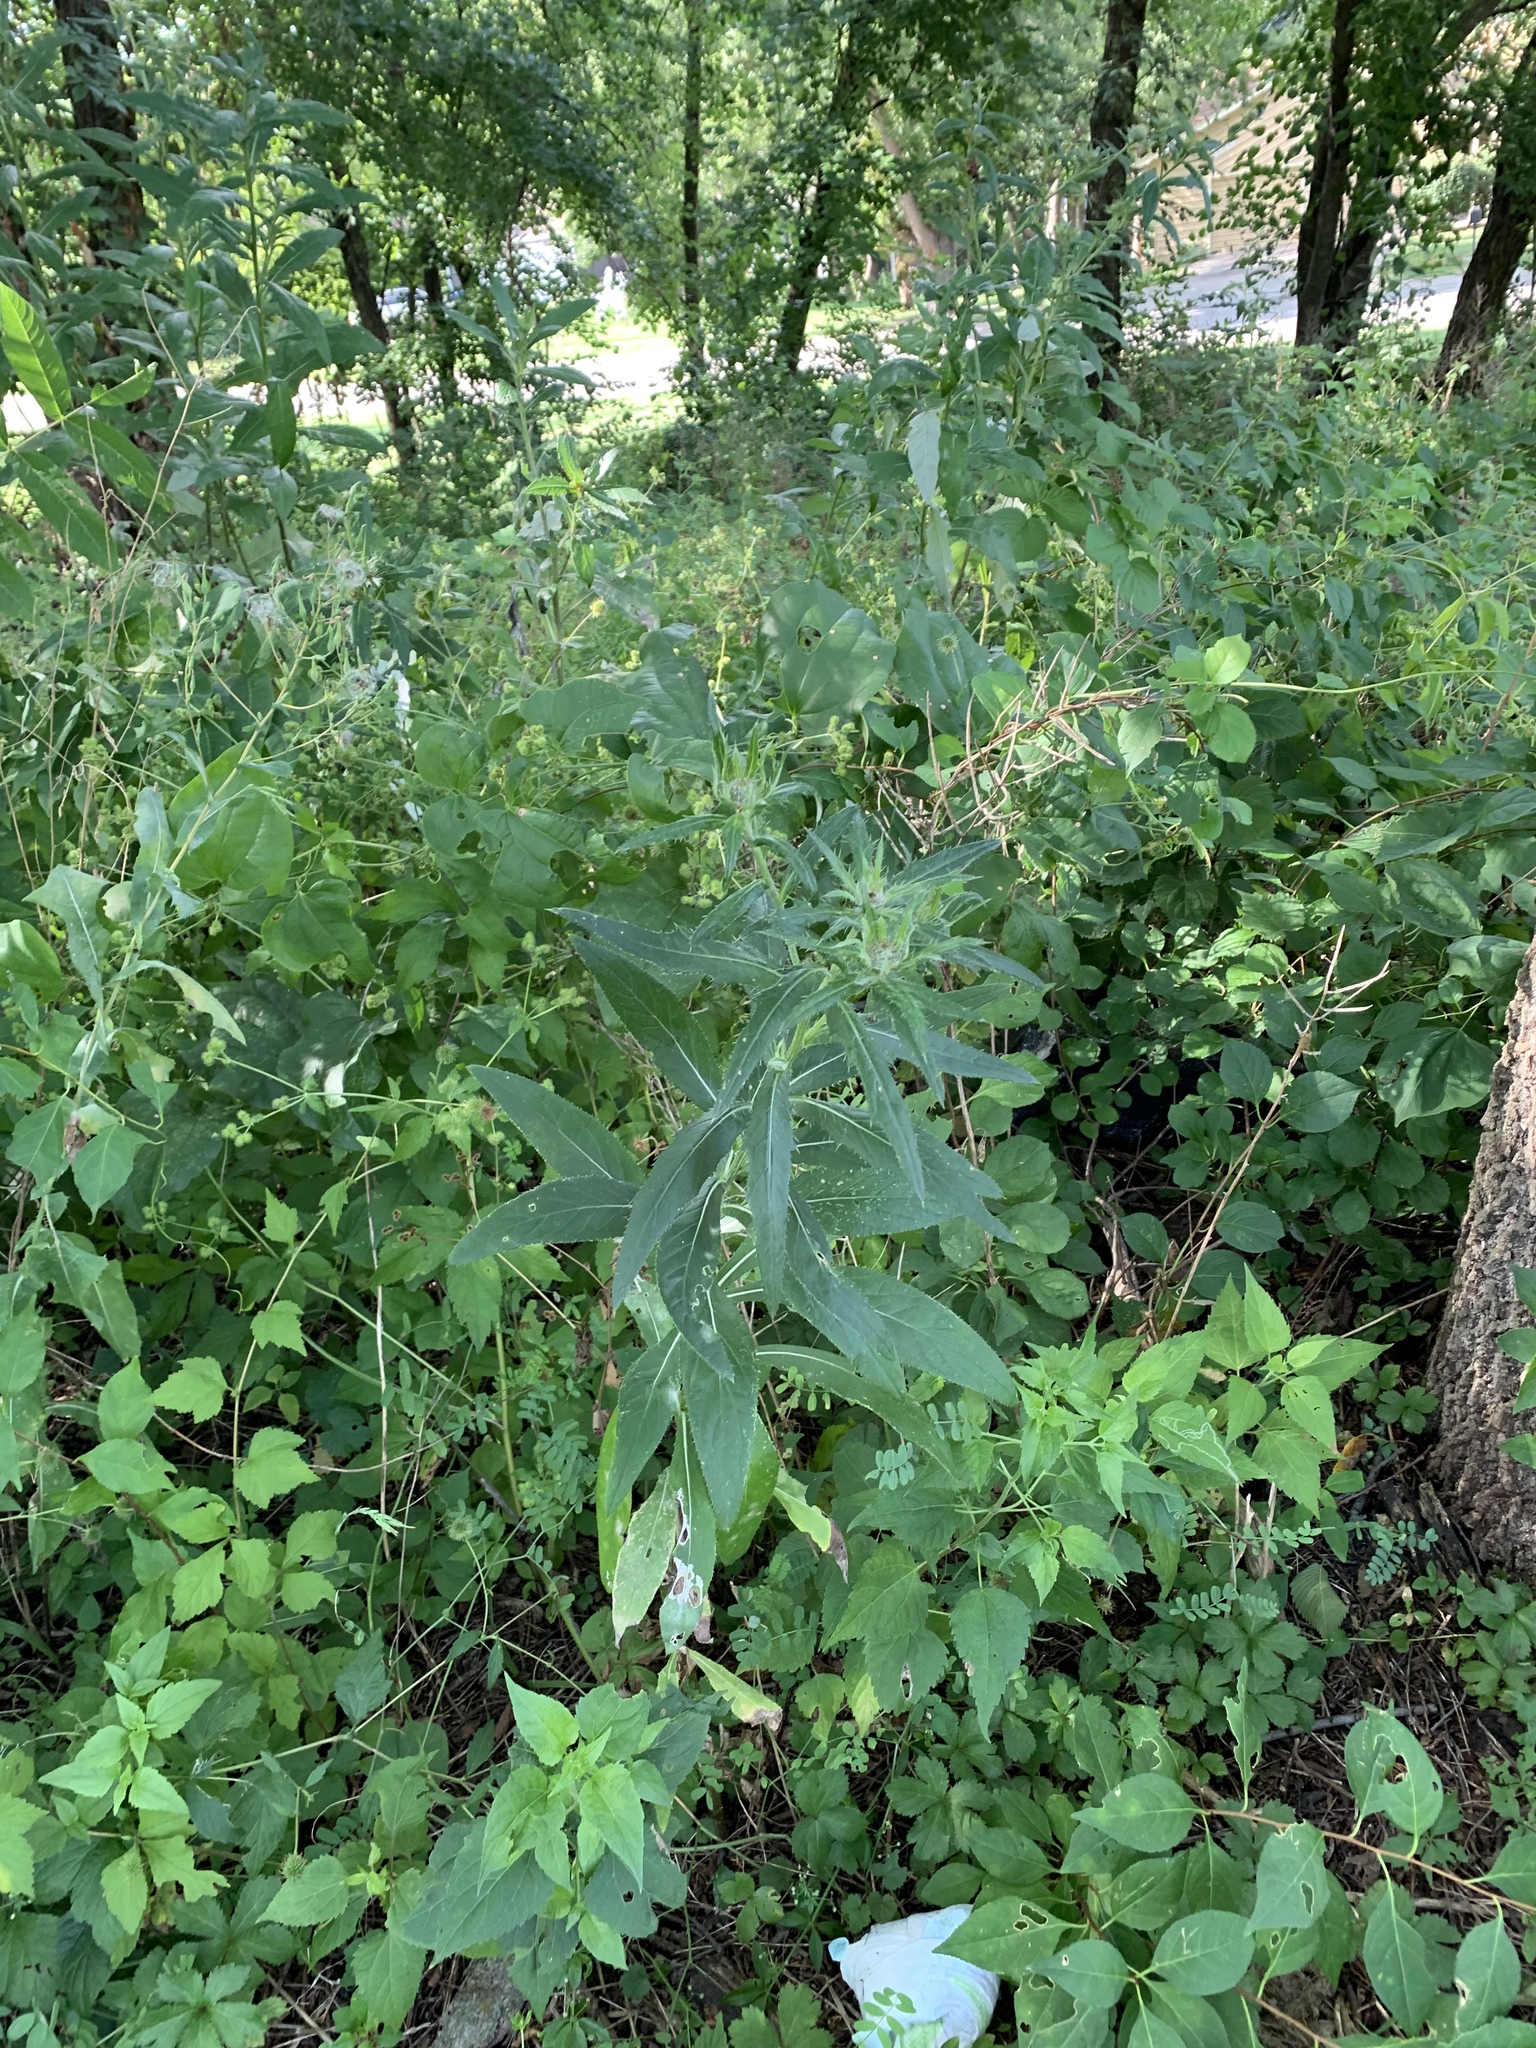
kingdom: Plantae
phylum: Tracheophyta
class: Magnoliopsida
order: Asterales
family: Asteraceae
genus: Cirsium
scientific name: Cirsium altissimum
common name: Roadside thistle
